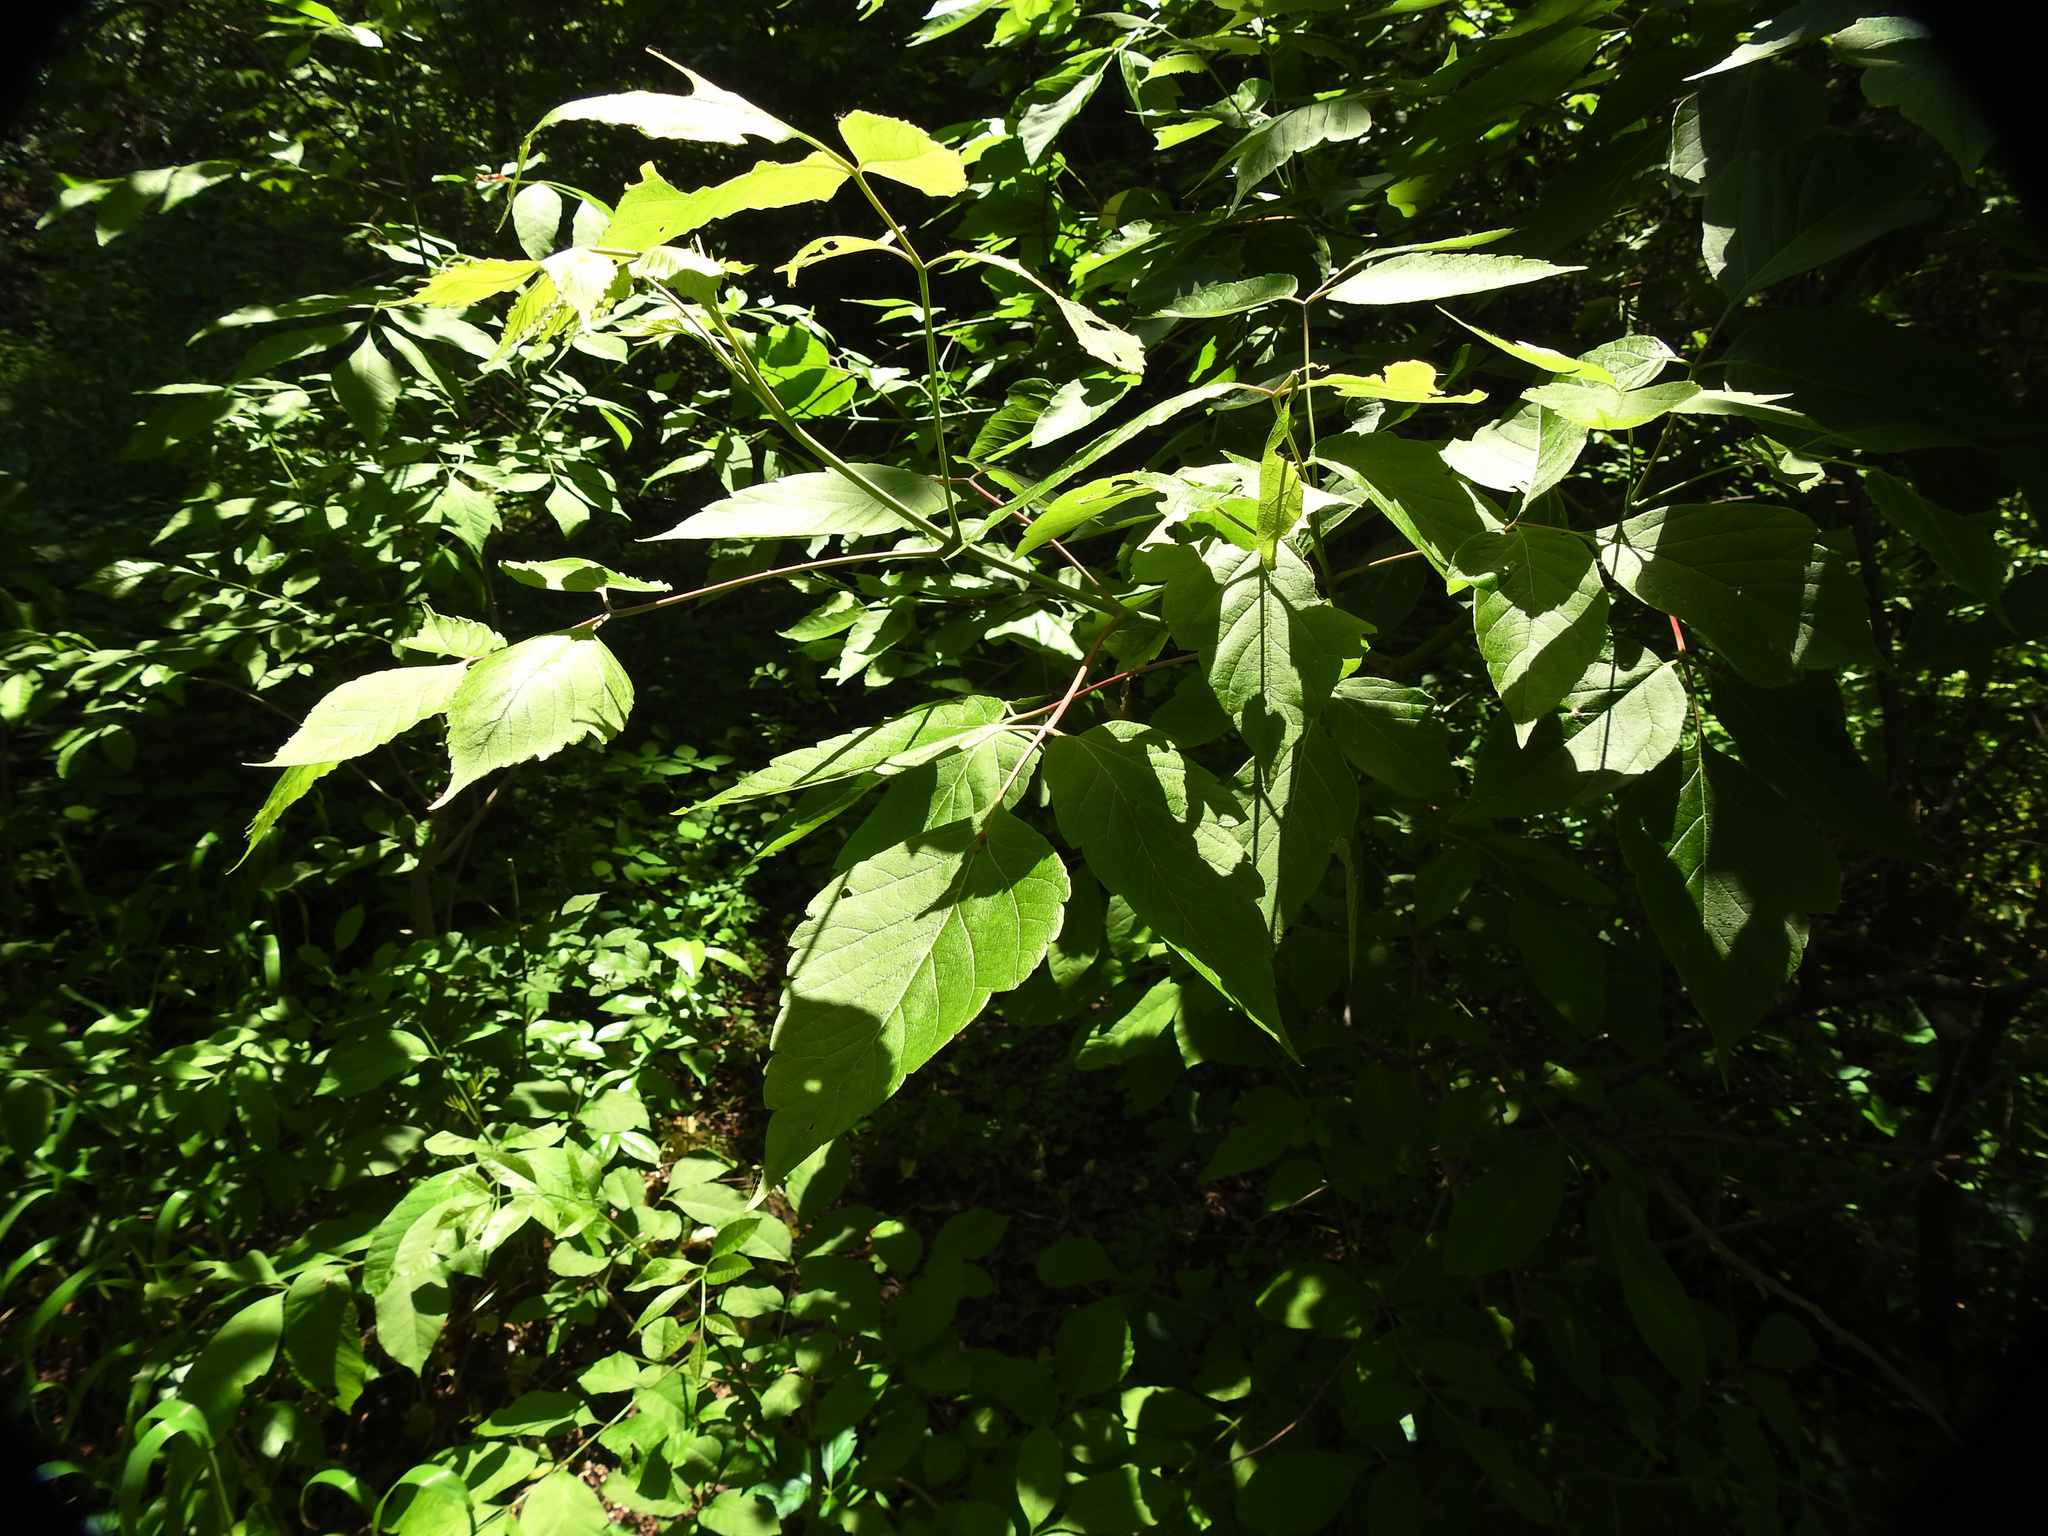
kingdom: Plantae
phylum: Tracheophyta
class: Magnoliopsida
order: Sapindales
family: Sapindaceae
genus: Acer
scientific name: Acer negundo
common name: Ashleaf maple
